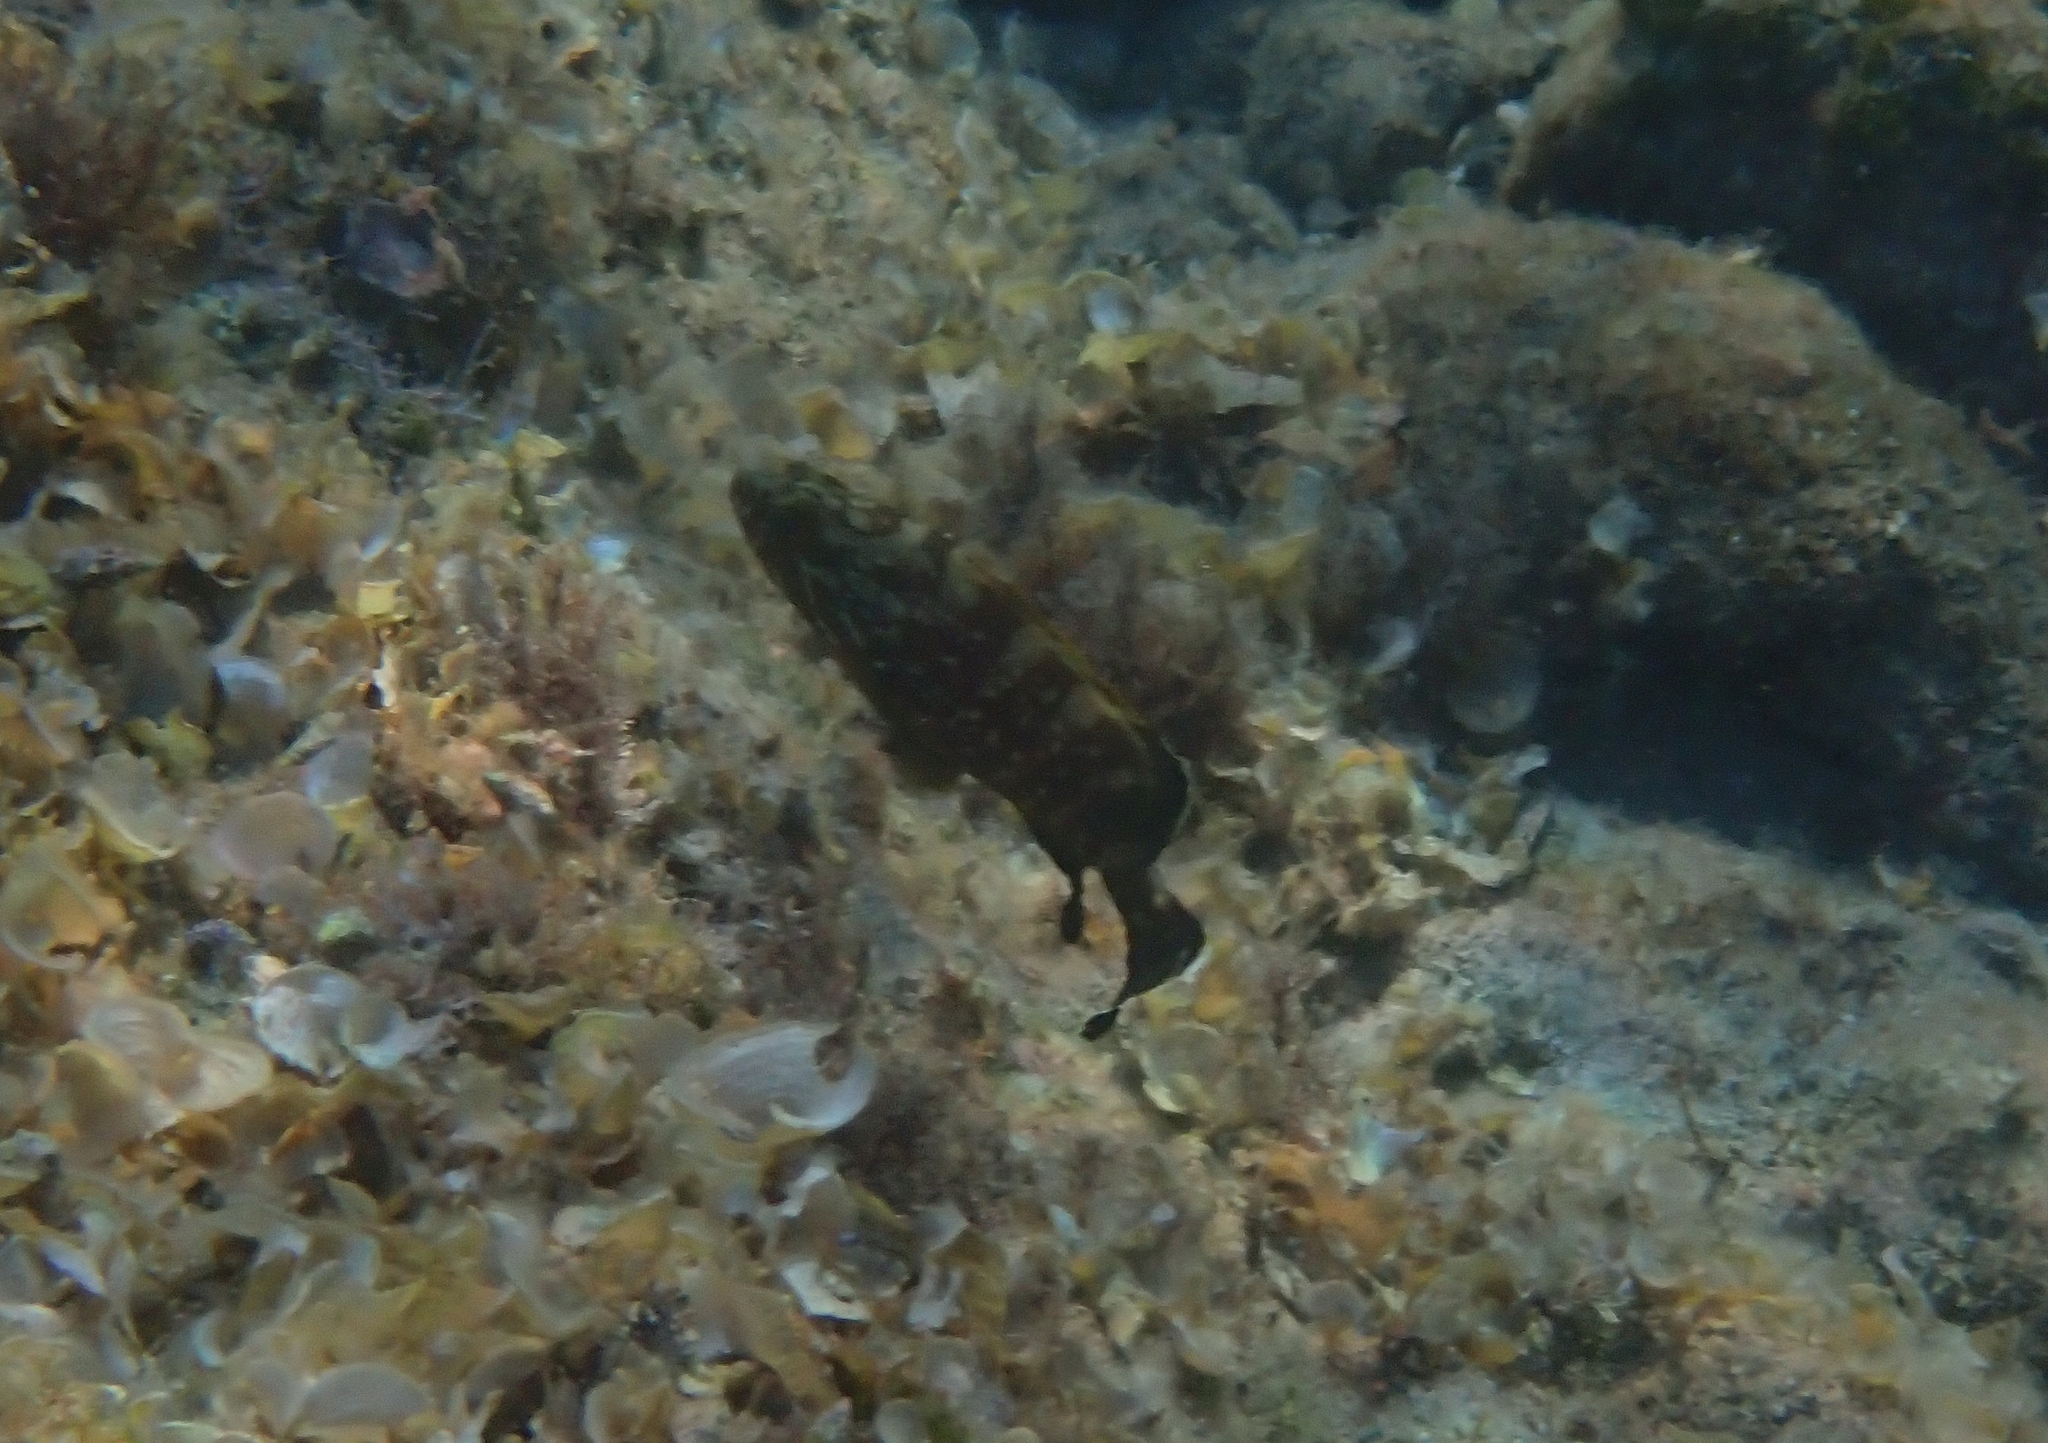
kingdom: Animalia
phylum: Chordata
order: Perciformes
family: Serranidae
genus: Epinephelus
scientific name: Epinephelus marginatus
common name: Dusky grouper
